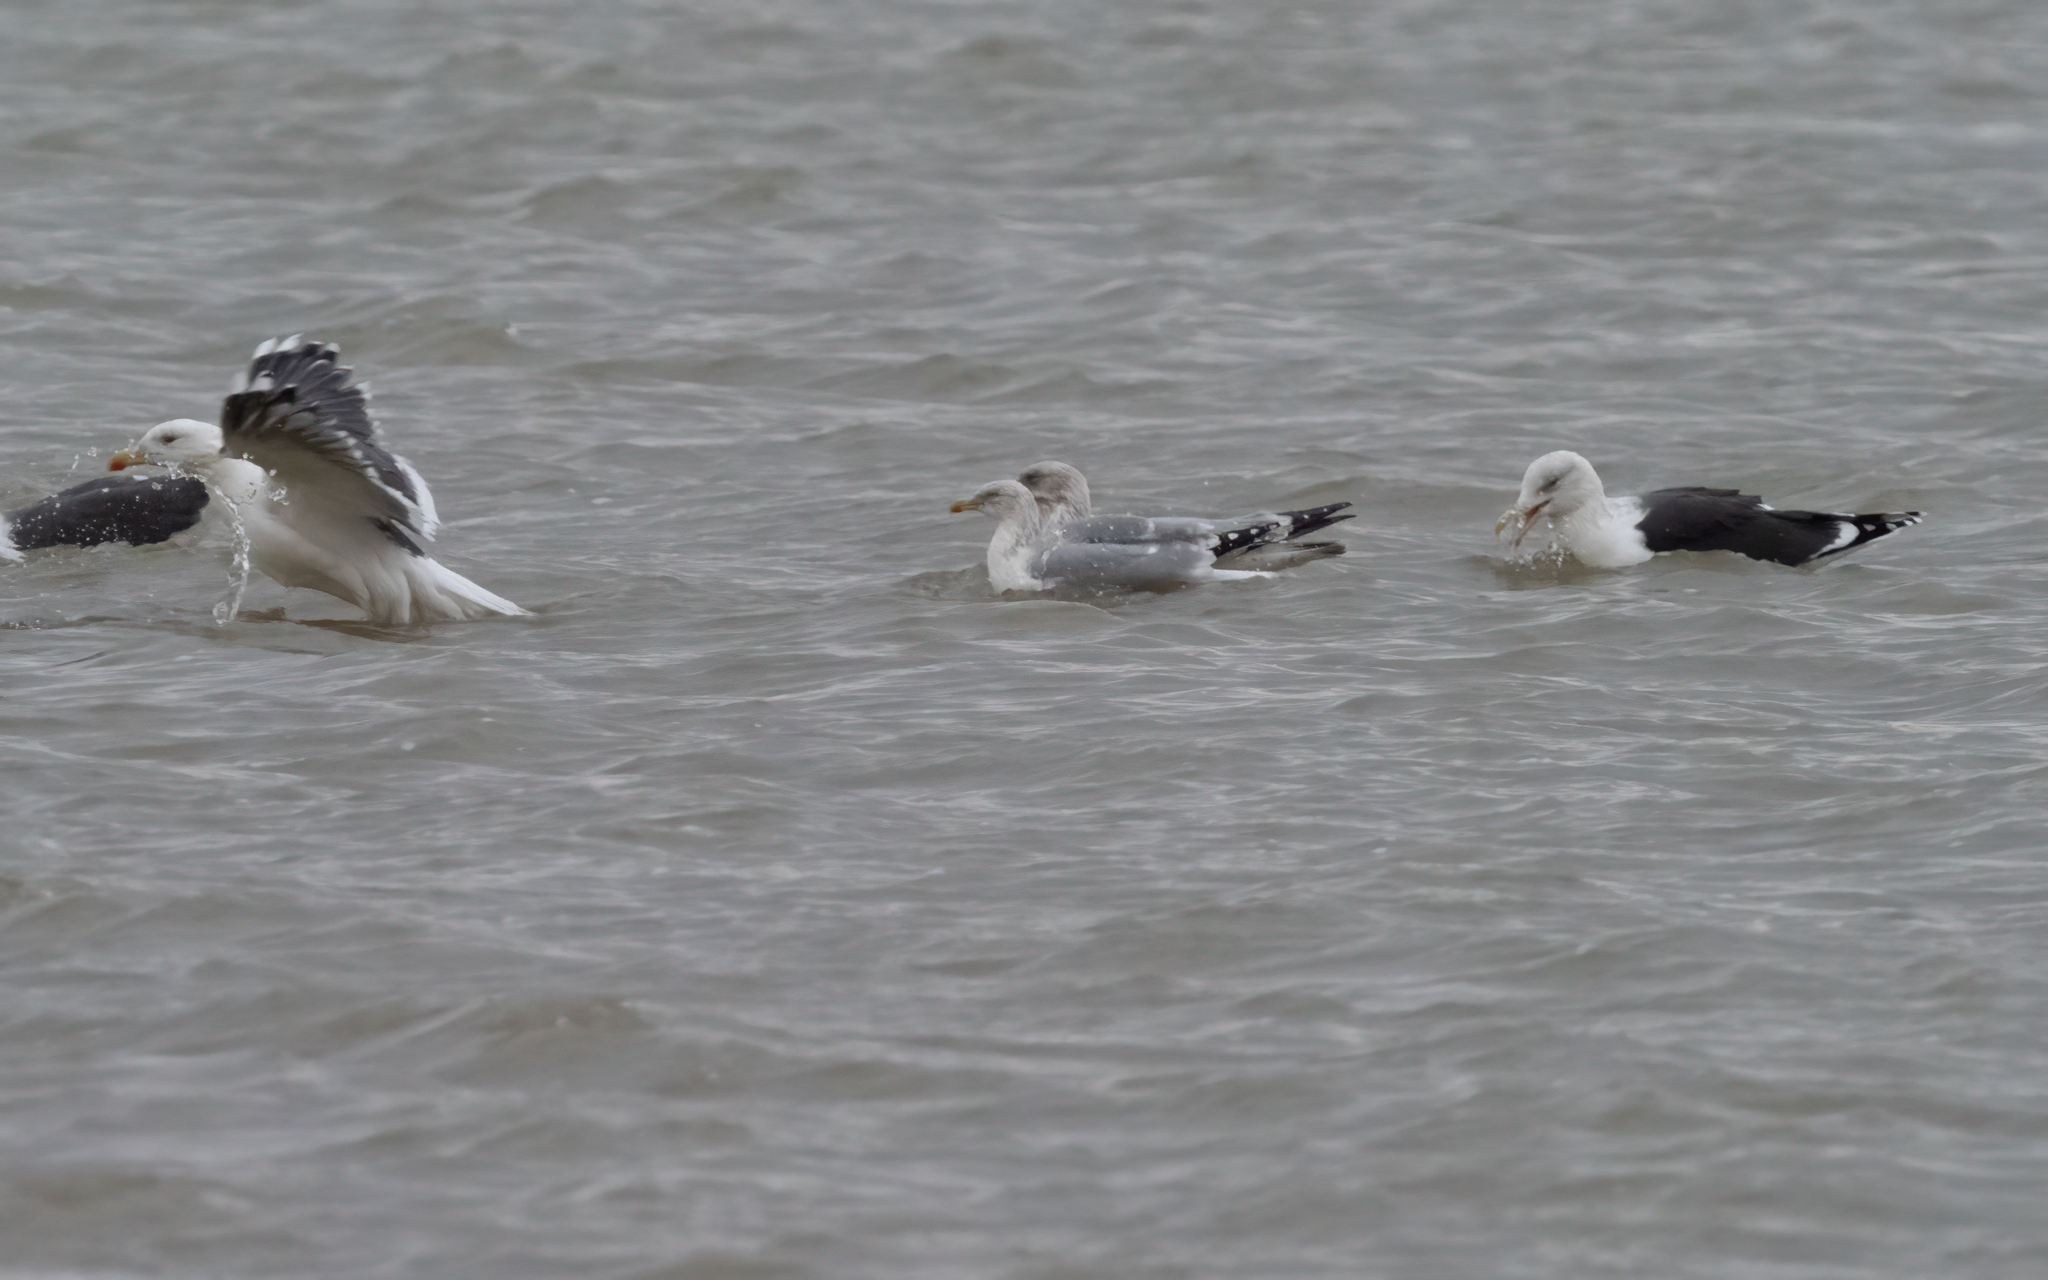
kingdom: Animalia
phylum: Chordata
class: Aves
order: Charadriiformes
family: Laridae
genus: Larus
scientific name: Larus argentatus
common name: Herring gull
